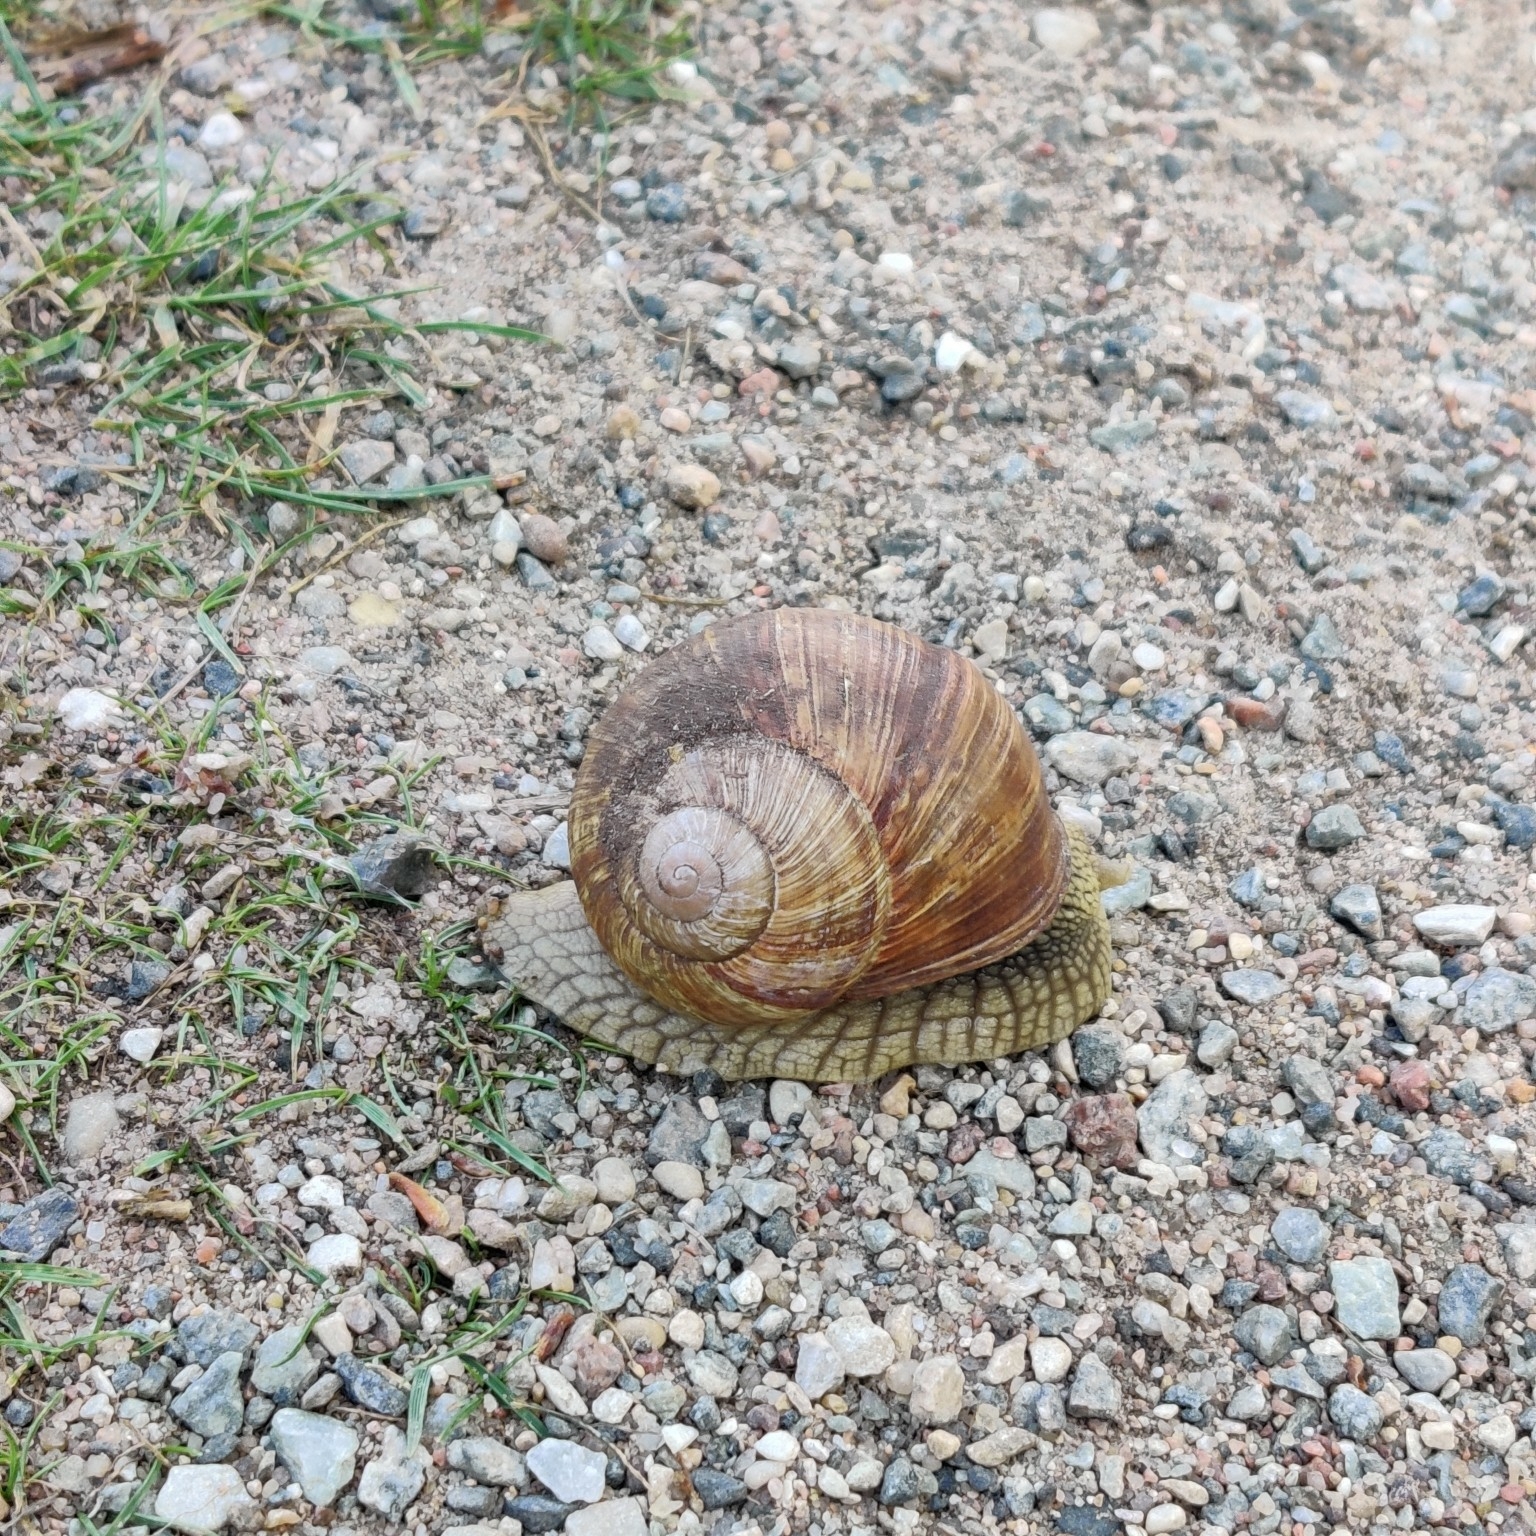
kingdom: Animalia
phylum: Mollusca
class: Gastropoda
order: Stylommatophora
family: Helicidae
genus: Helix
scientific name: Helix pomatia
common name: Roman snail
